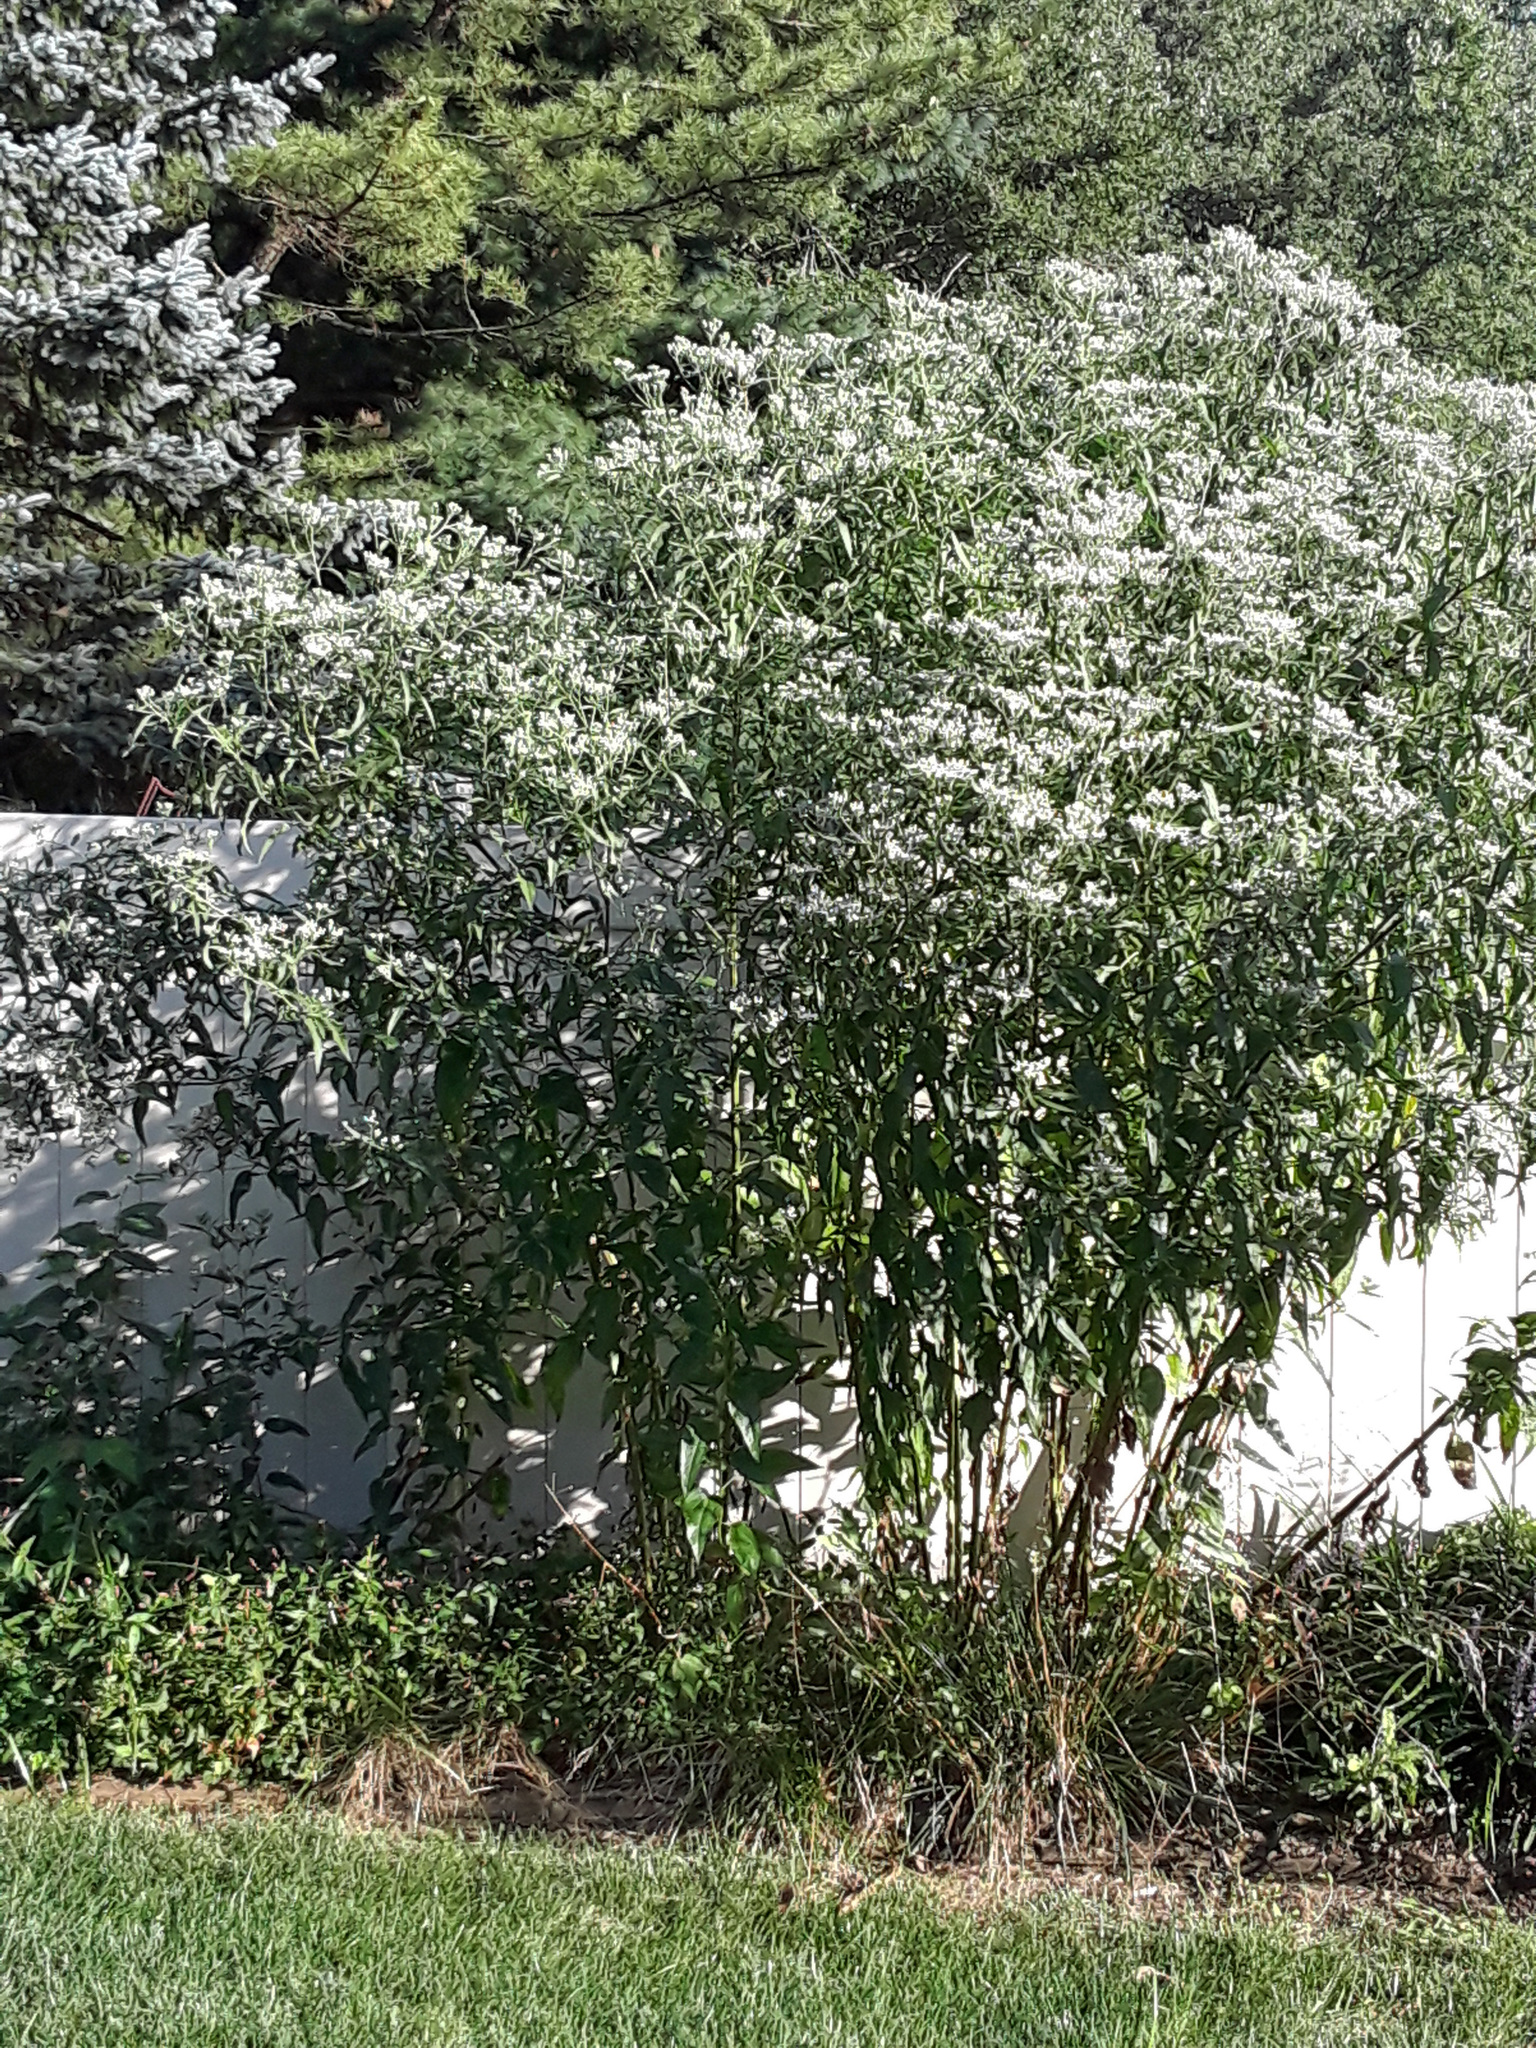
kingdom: Plantae
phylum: Tracheophyta
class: Magnoliopsida
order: Asterales
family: Asteraceae
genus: Eupatorium
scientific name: Eupatorium serotinum
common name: Late boneset
